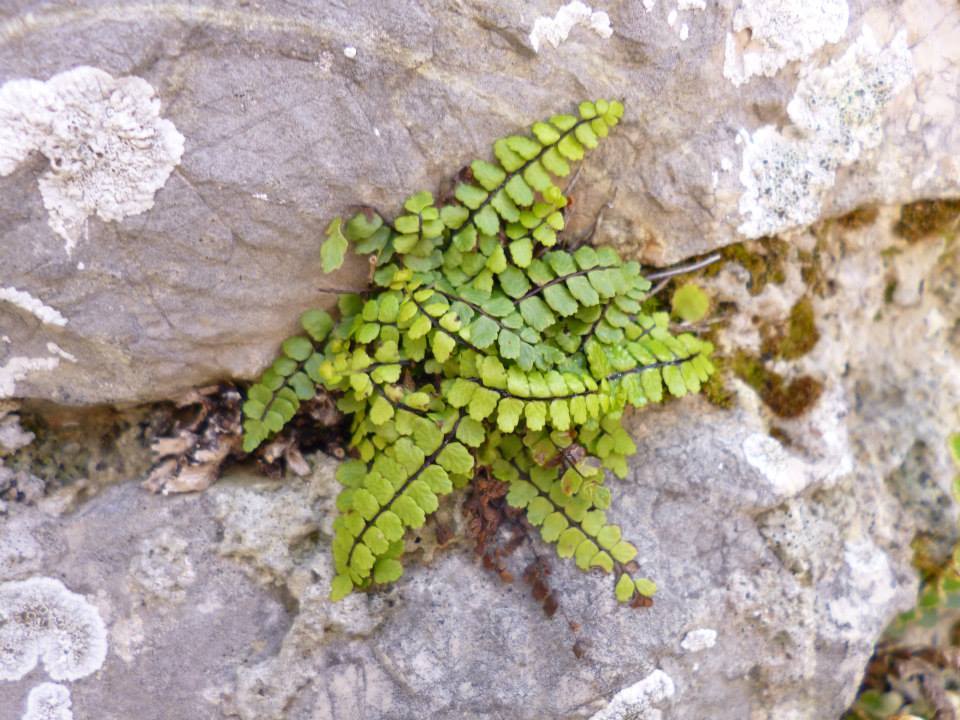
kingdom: Plantae
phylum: Tracheophyta
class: Polypodiopsida
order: Polypodiales
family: Aspleniaceae
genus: Asplenium
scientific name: Asplenium trichomanes
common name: Maidenhair spleenwort
